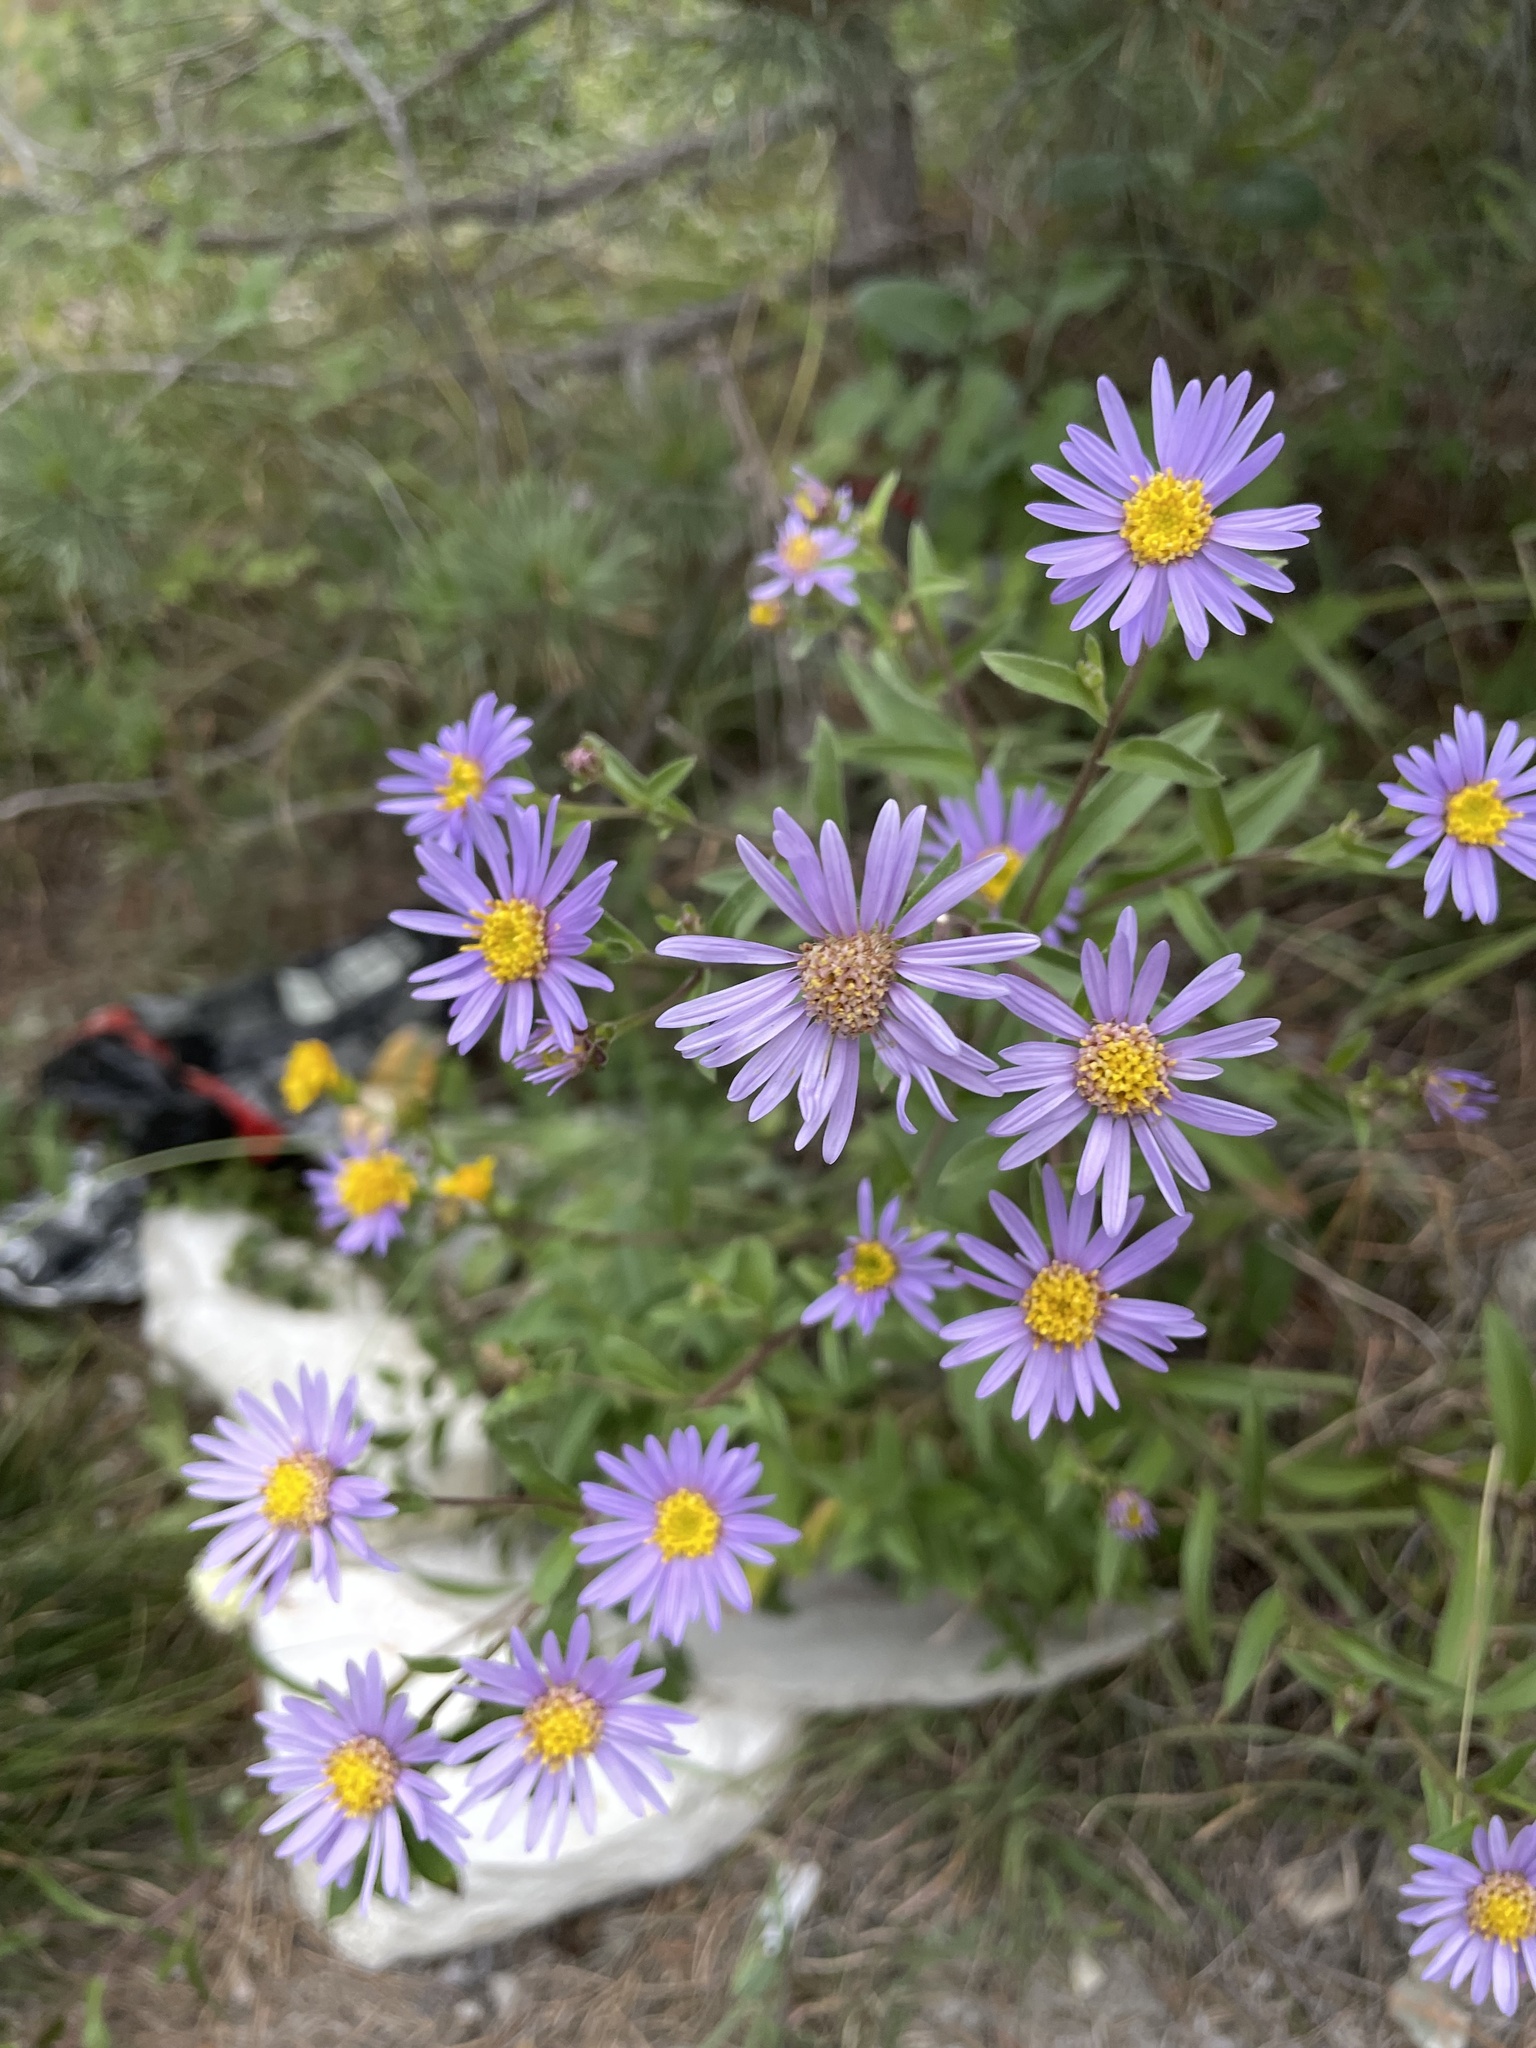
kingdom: Plantae
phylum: Tracheophyta
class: Magnoliopsida
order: Asterales
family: Asteraceae
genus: Aster
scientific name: Aster amellus
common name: European michaelmas daisy
